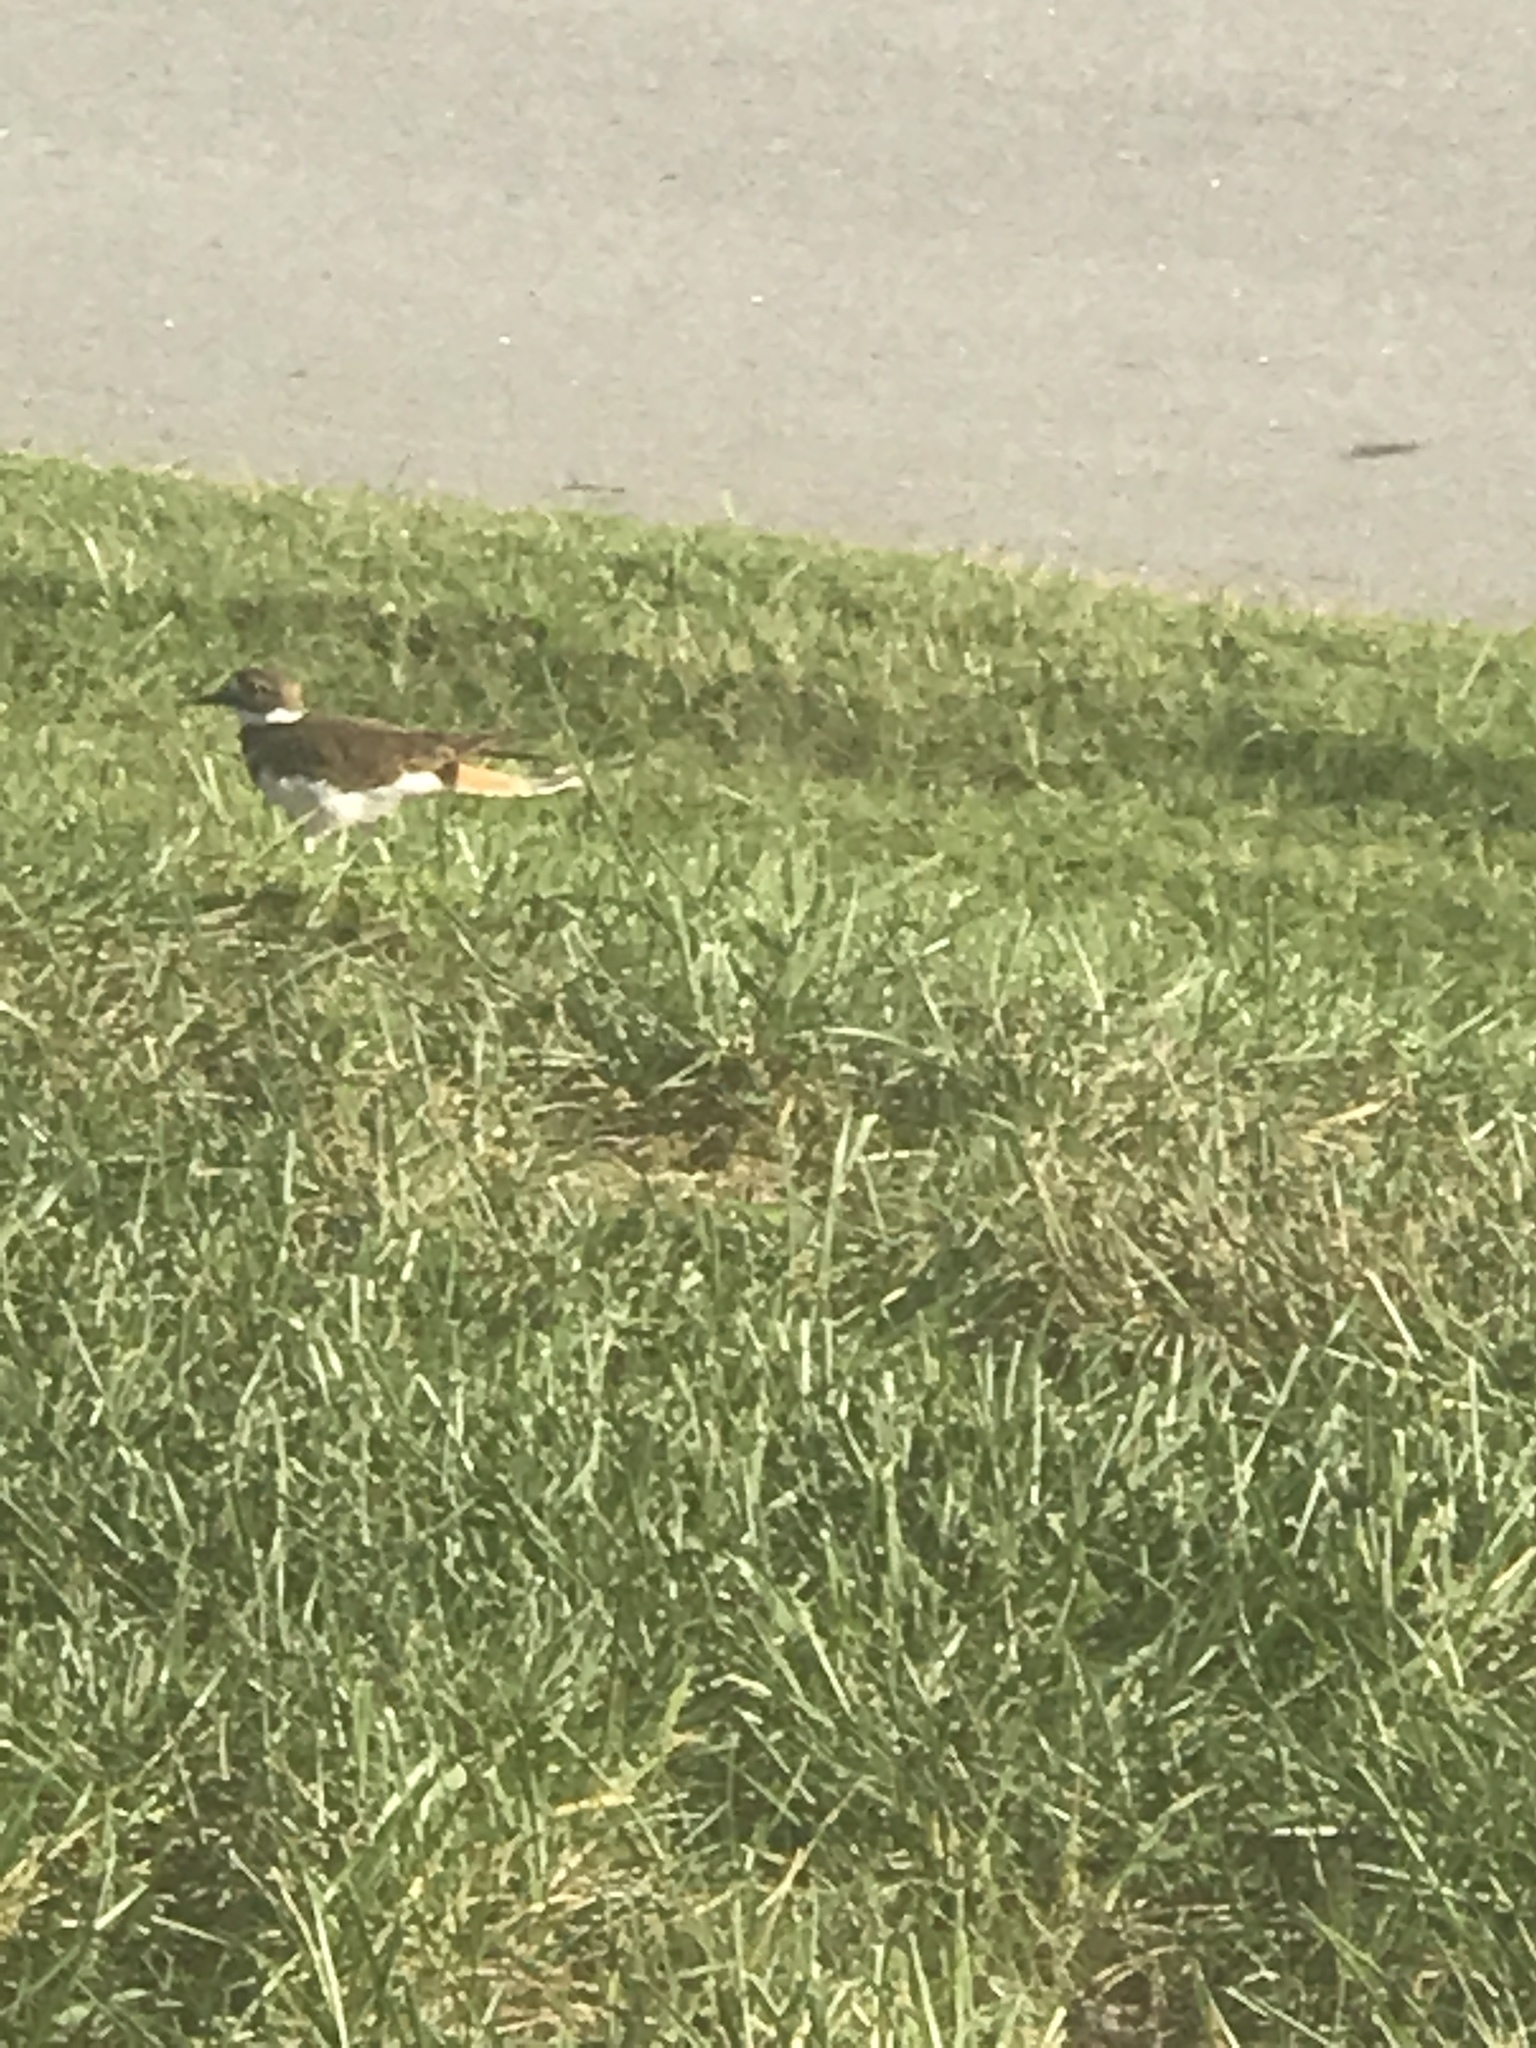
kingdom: Animalia
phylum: Chordata
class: Aves
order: Charadriiformes
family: Charadriidae
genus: Charadrius
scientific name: Charadrius vociferus
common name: Killdeer
